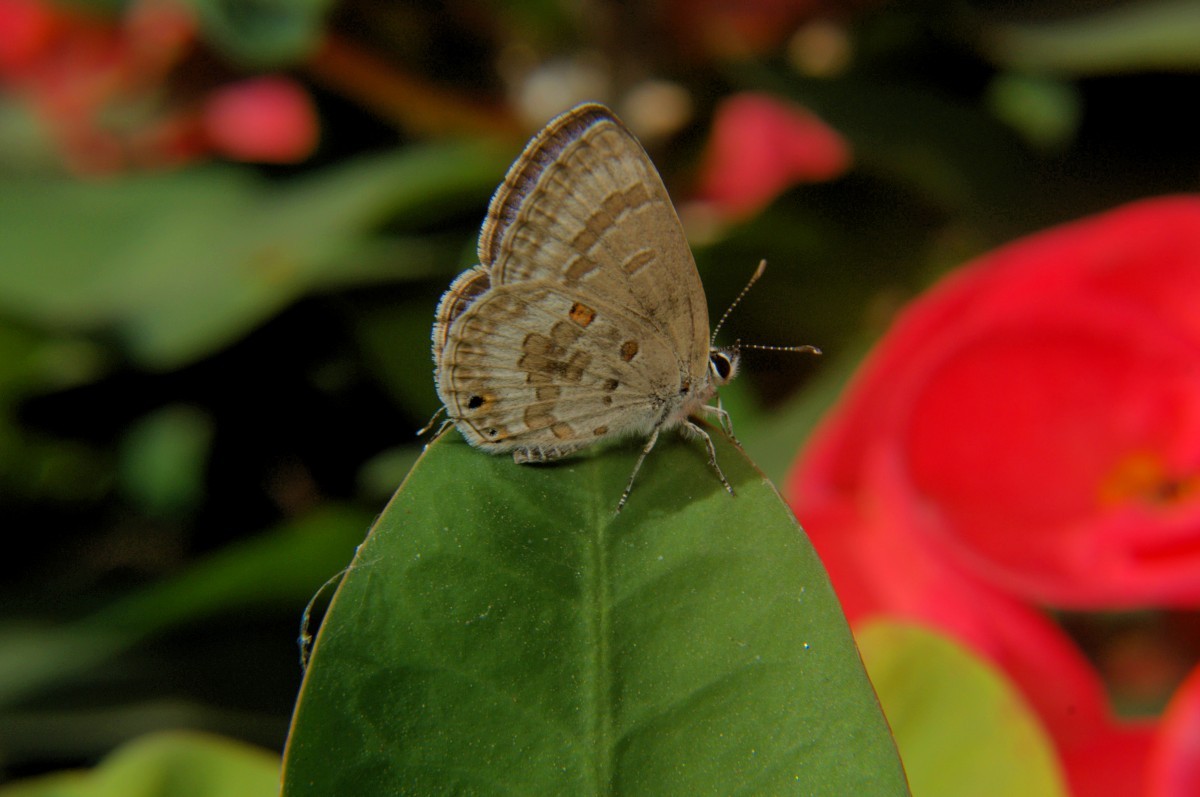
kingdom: Animalia
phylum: Arthropoda
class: Insecta
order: Lepidoptera
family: Lycaenidae
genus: Luthrodes
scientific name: Luthrodes pandava
